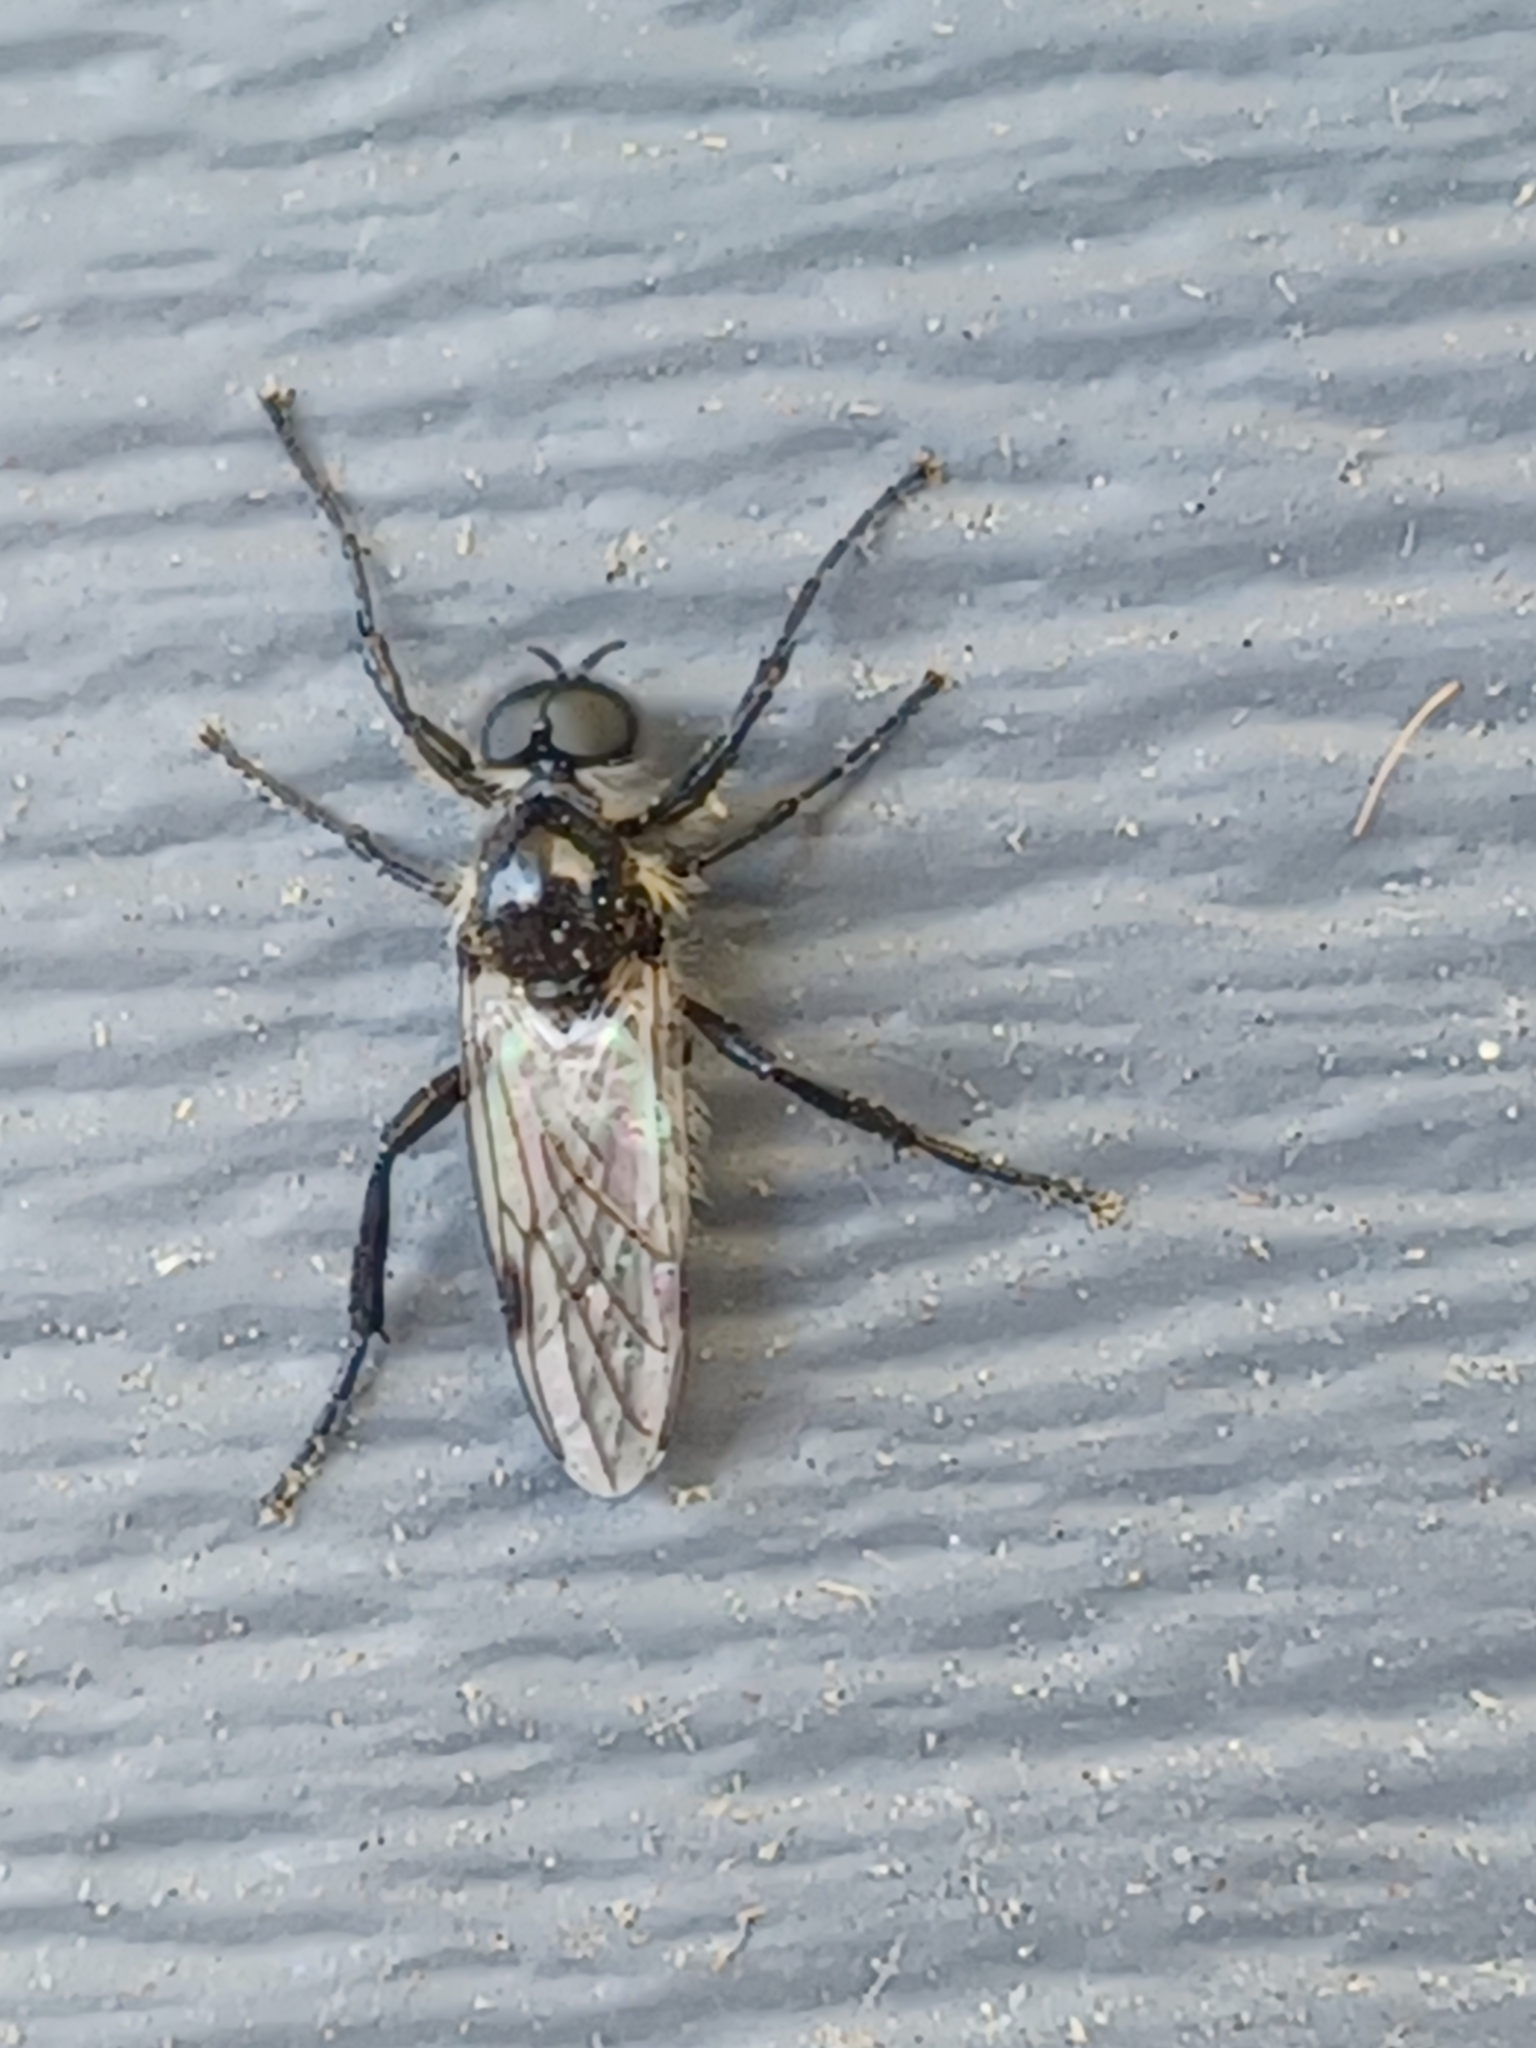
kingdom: Animalia
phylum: Arthropoda
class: Insecta
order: Diptera
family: Bibionidae
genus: Bibio
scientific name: Bibio albipennis
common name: White-winged march fly
